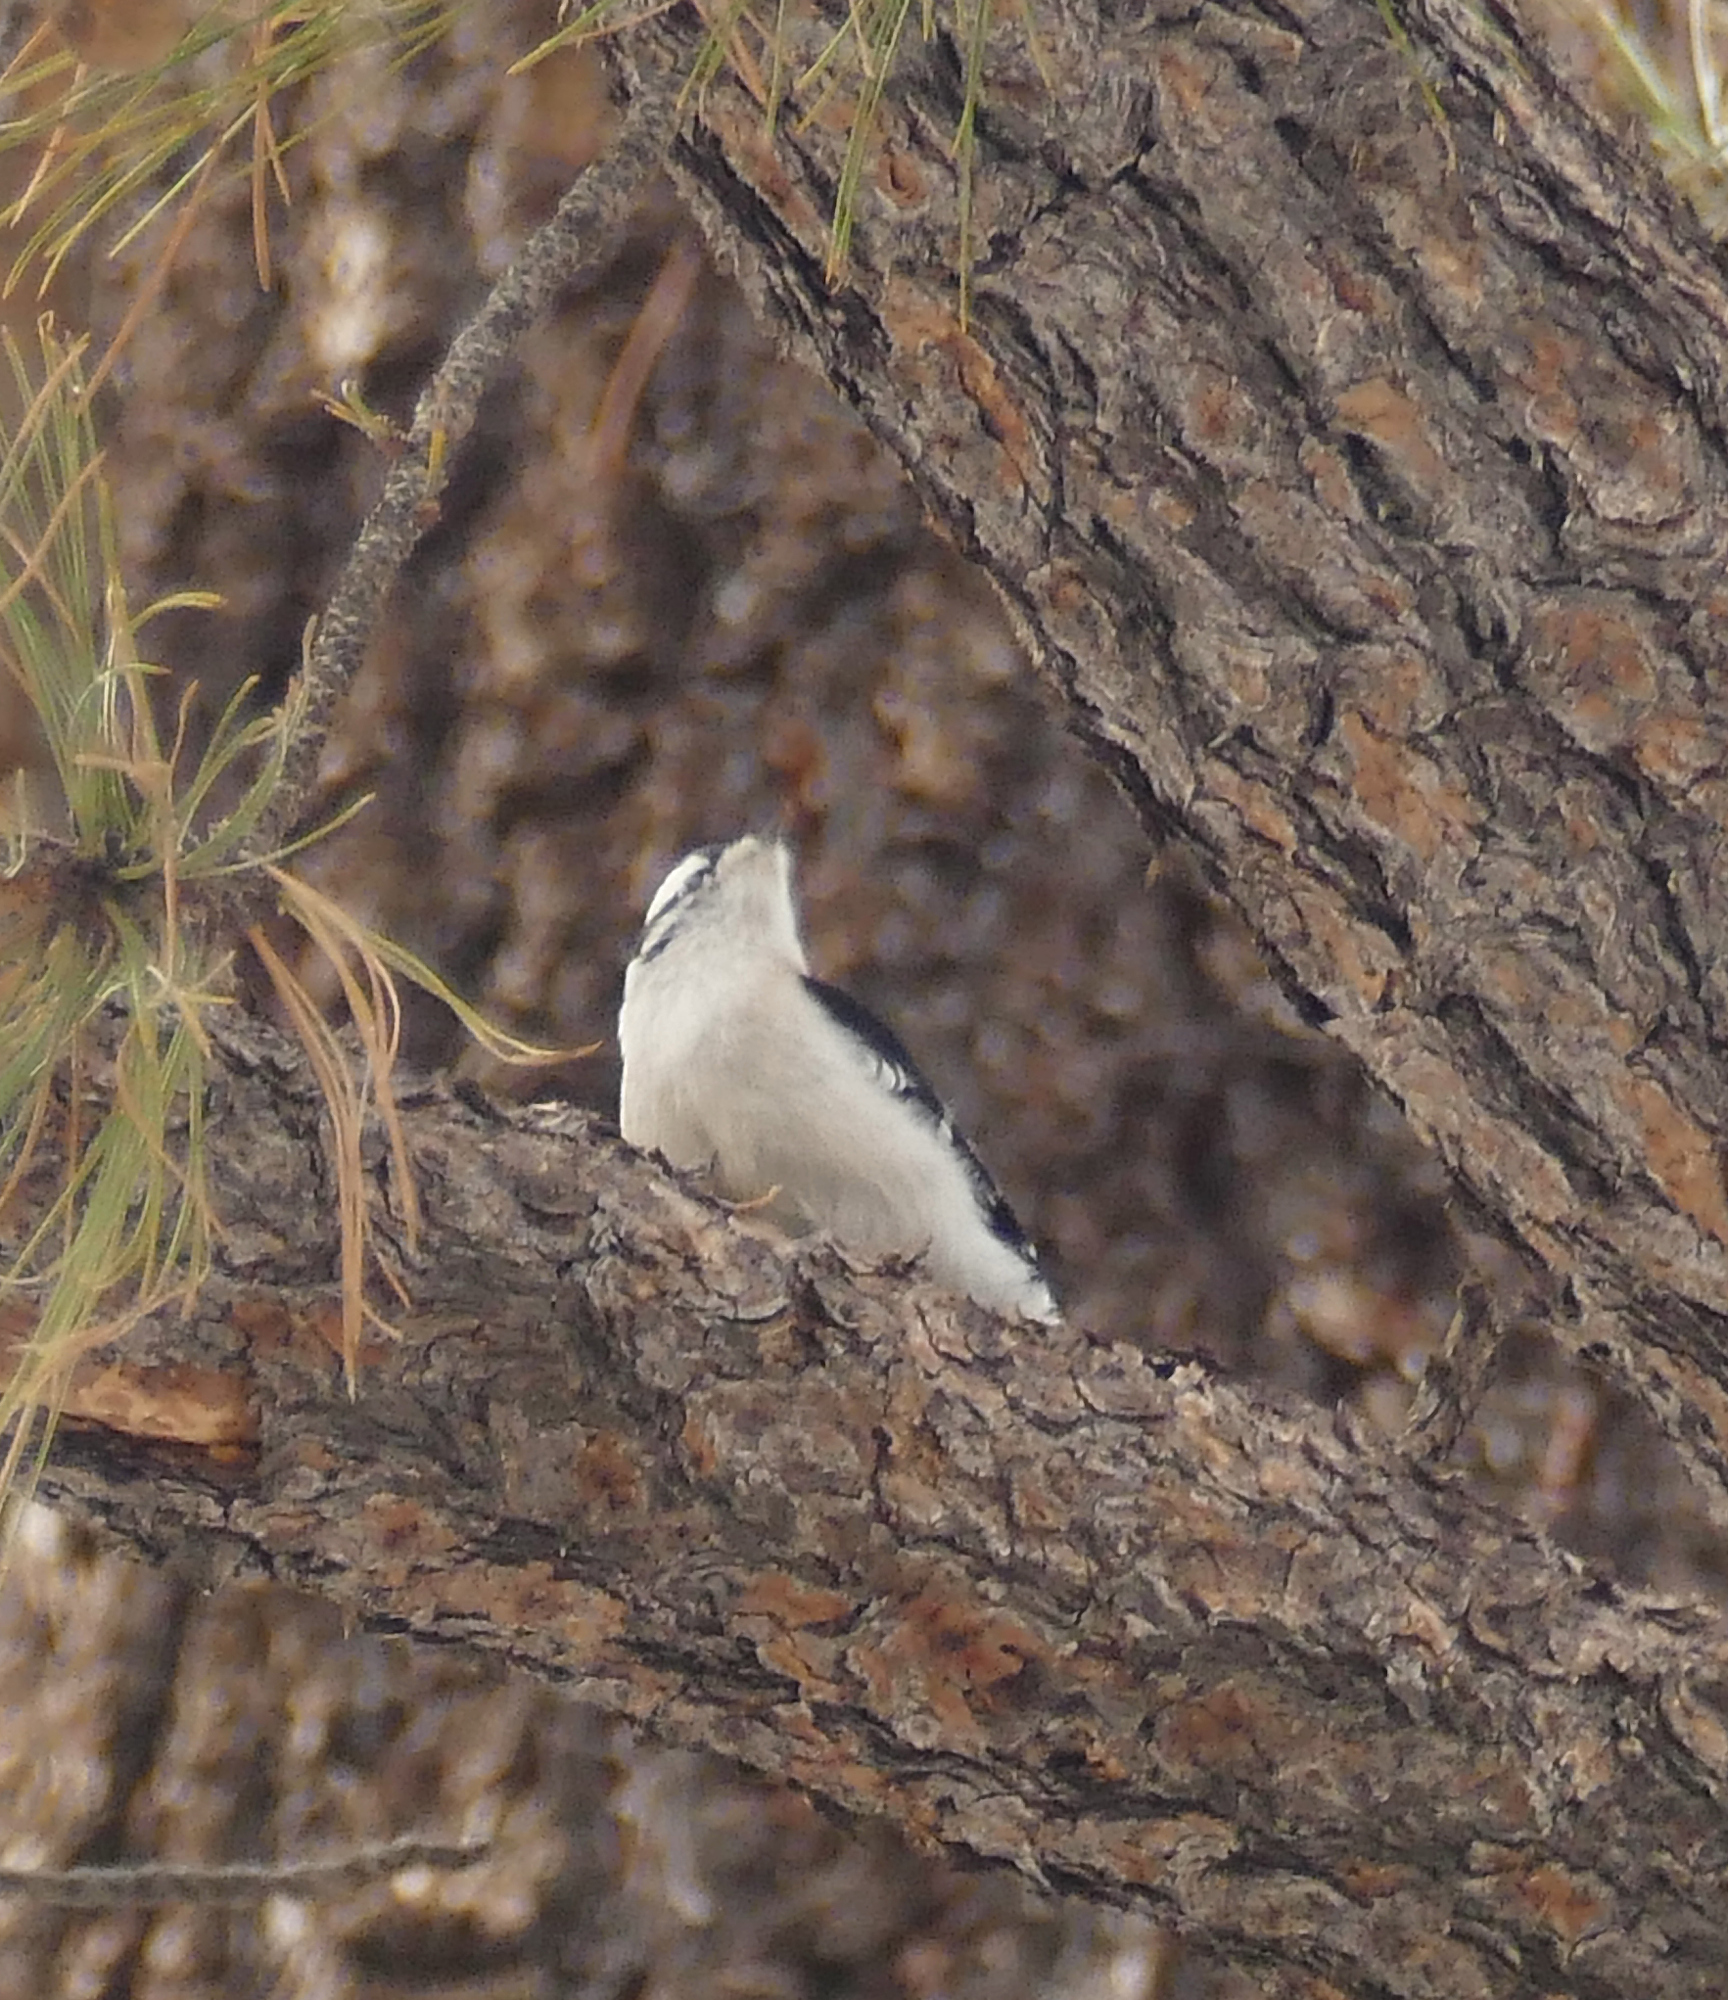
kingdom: Animalia
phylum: Chordata
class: Aves
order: Piciformes
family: Picidae
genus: Dryobates
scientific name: Dryobates pubescens
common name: Downy woodpecker
